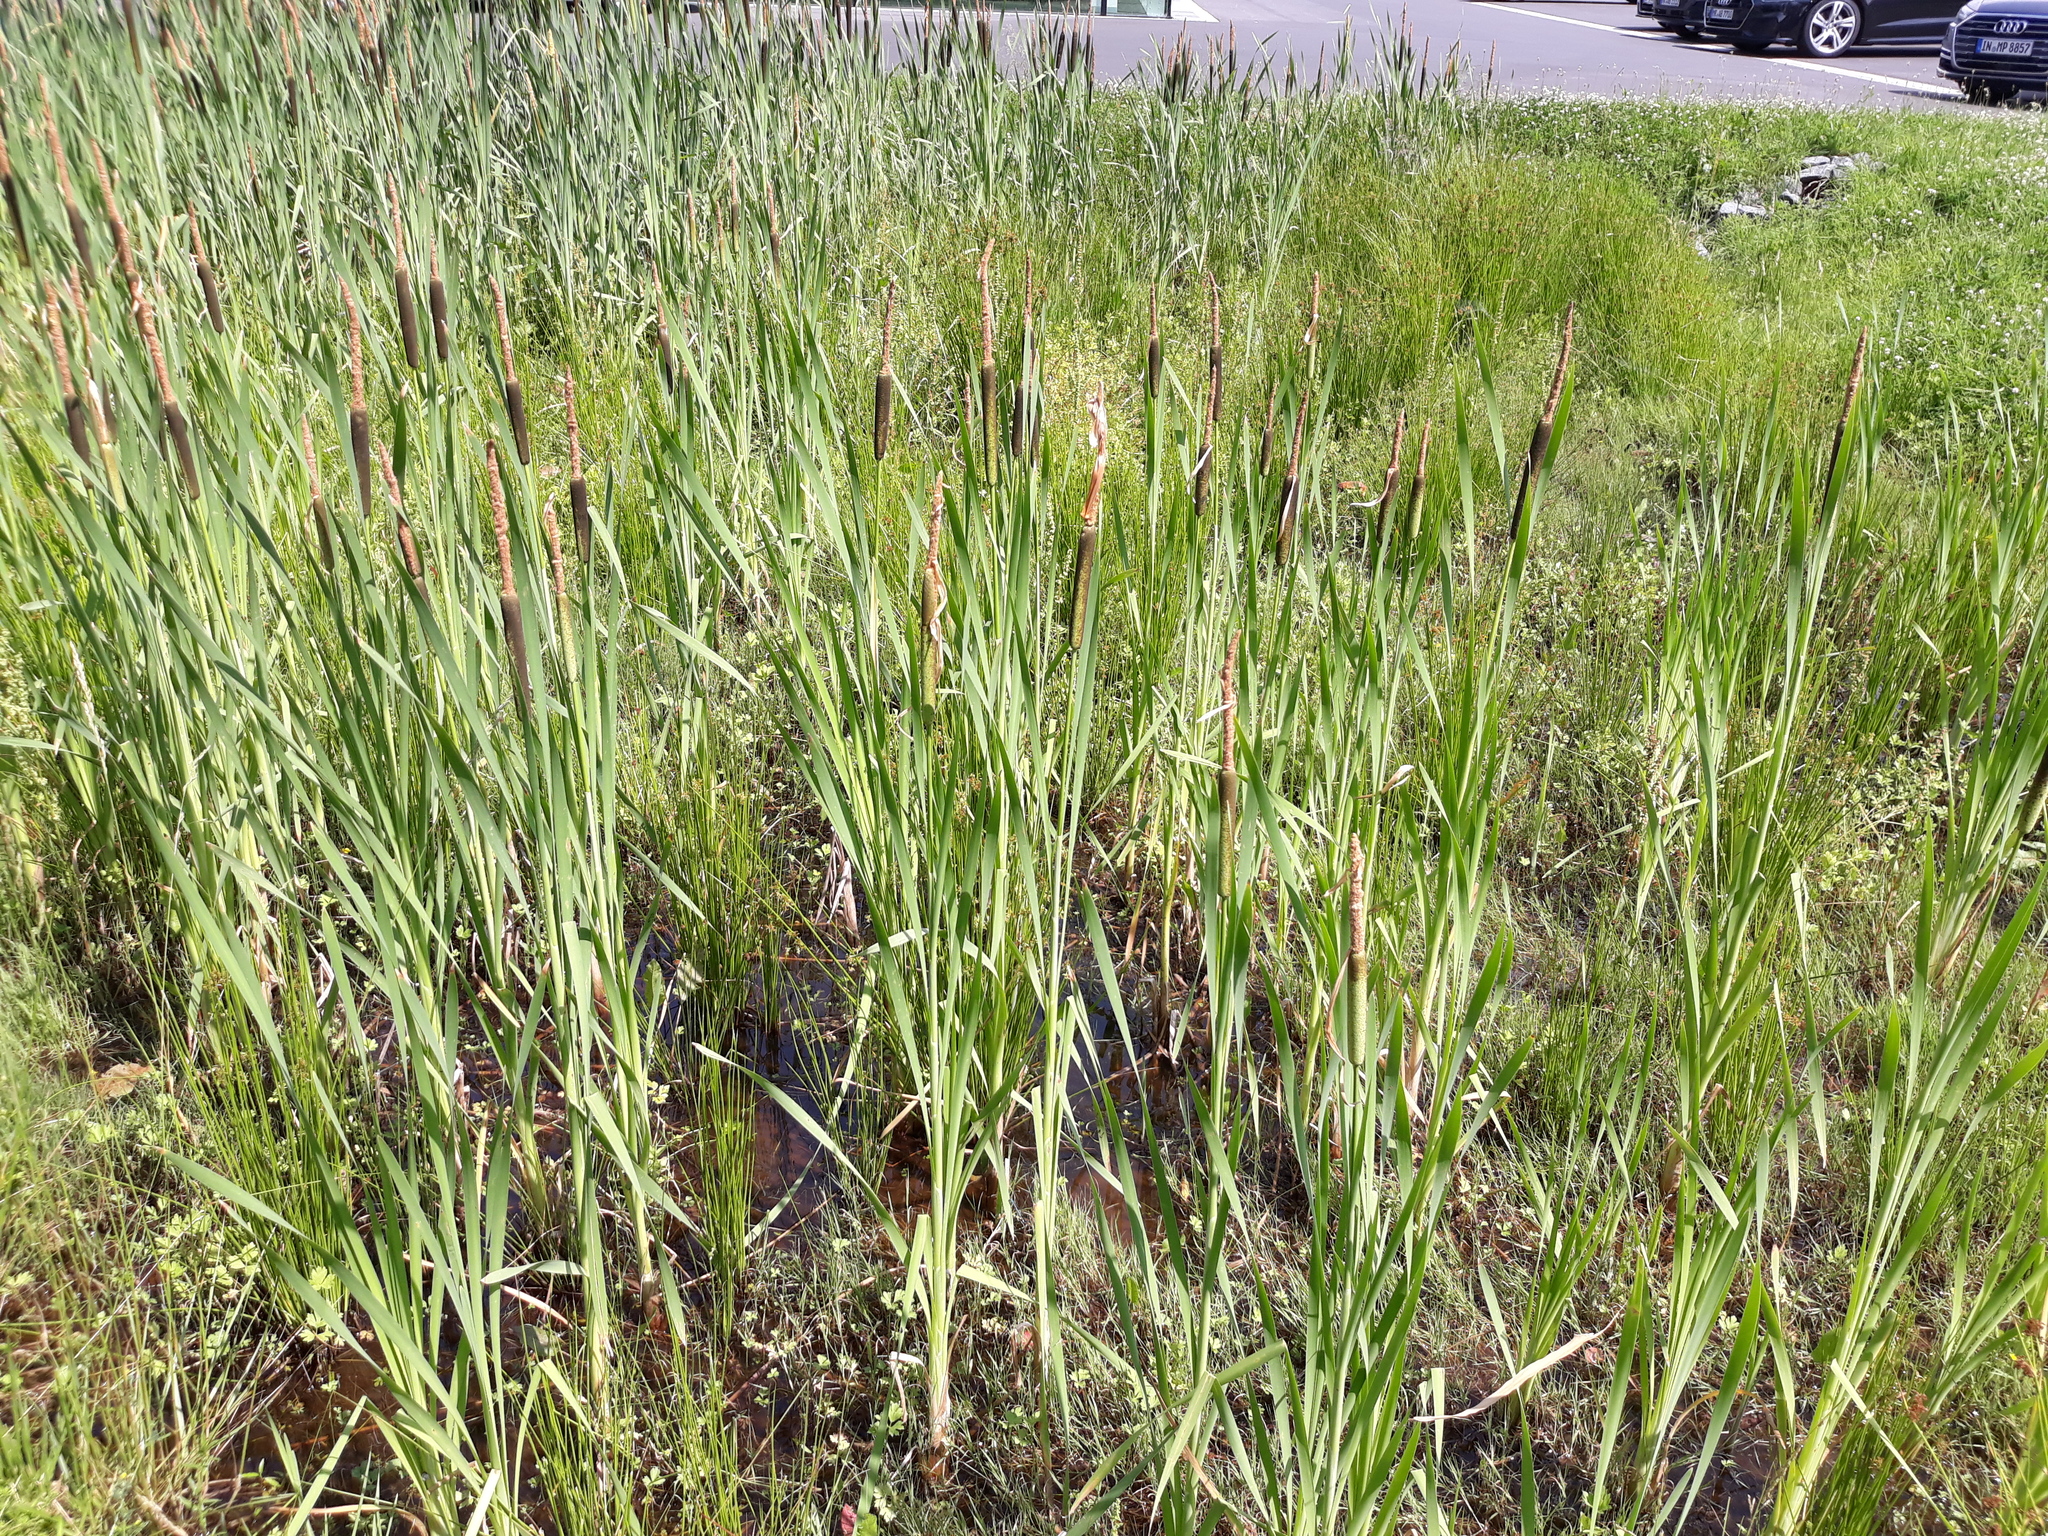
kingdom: Plantae
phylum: Tracheophyta
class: Liliopsida
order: Poales
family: Typhaceae
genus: Typha
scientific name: Typha latifolia
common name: Broadleaf cattail
